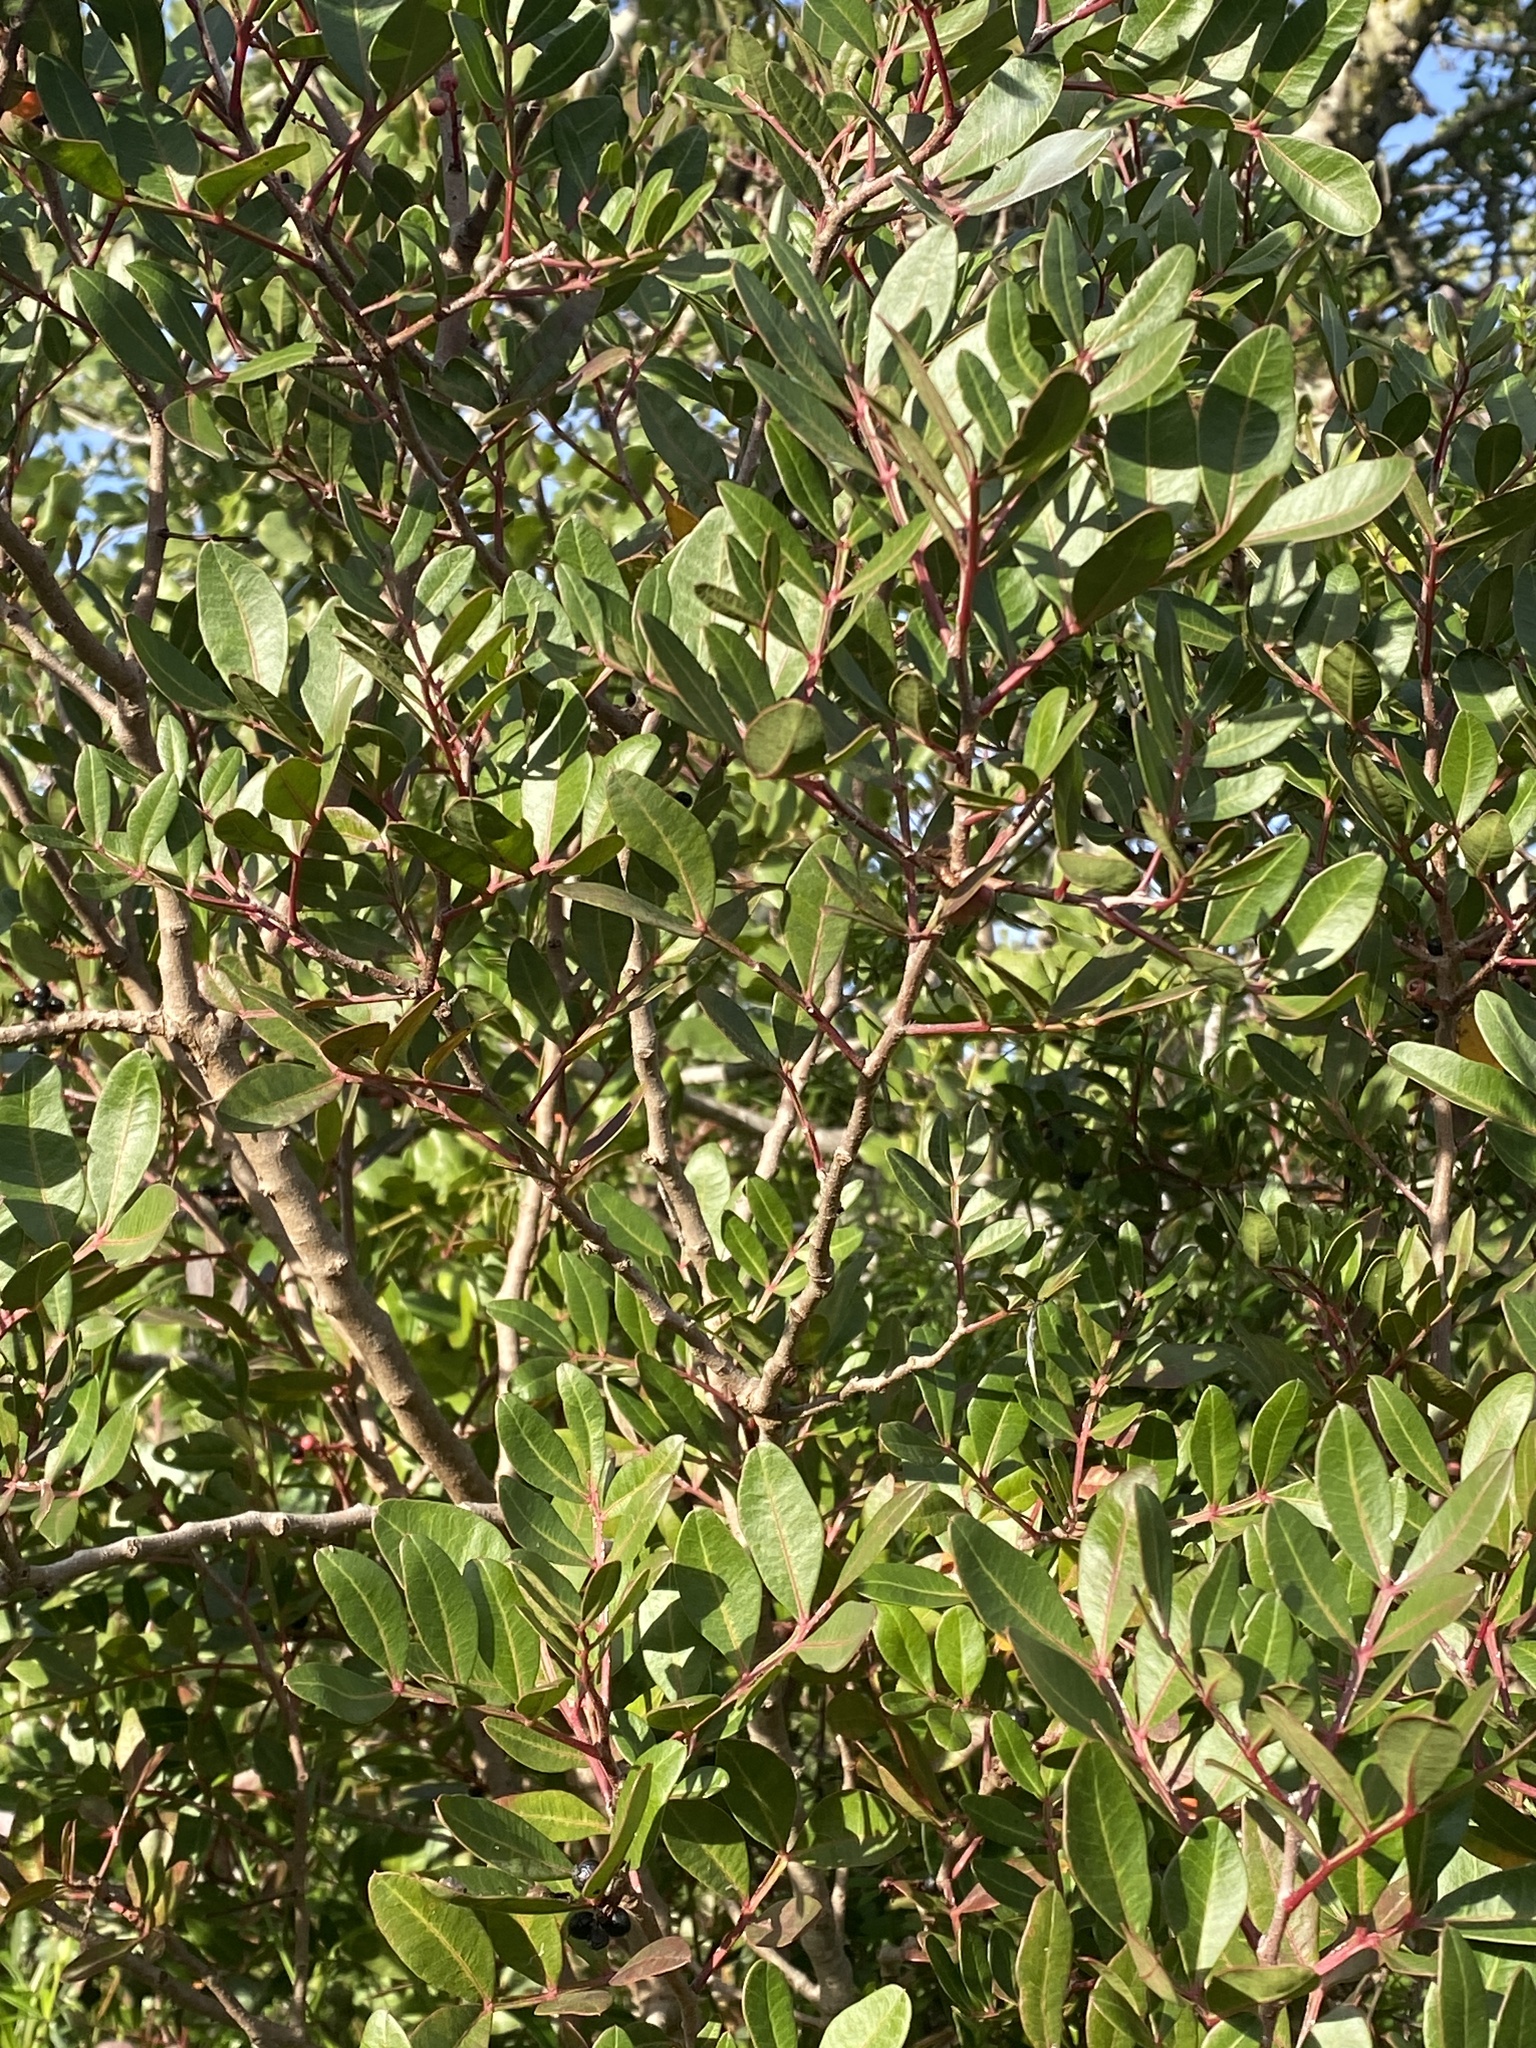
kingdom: Plantae
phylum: Tracheophyta
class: Magnoliopsida
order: Sapindales
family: Anacardiaceae
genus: Pistacia
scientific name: Pistacia lentiscus
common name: Lentisk
